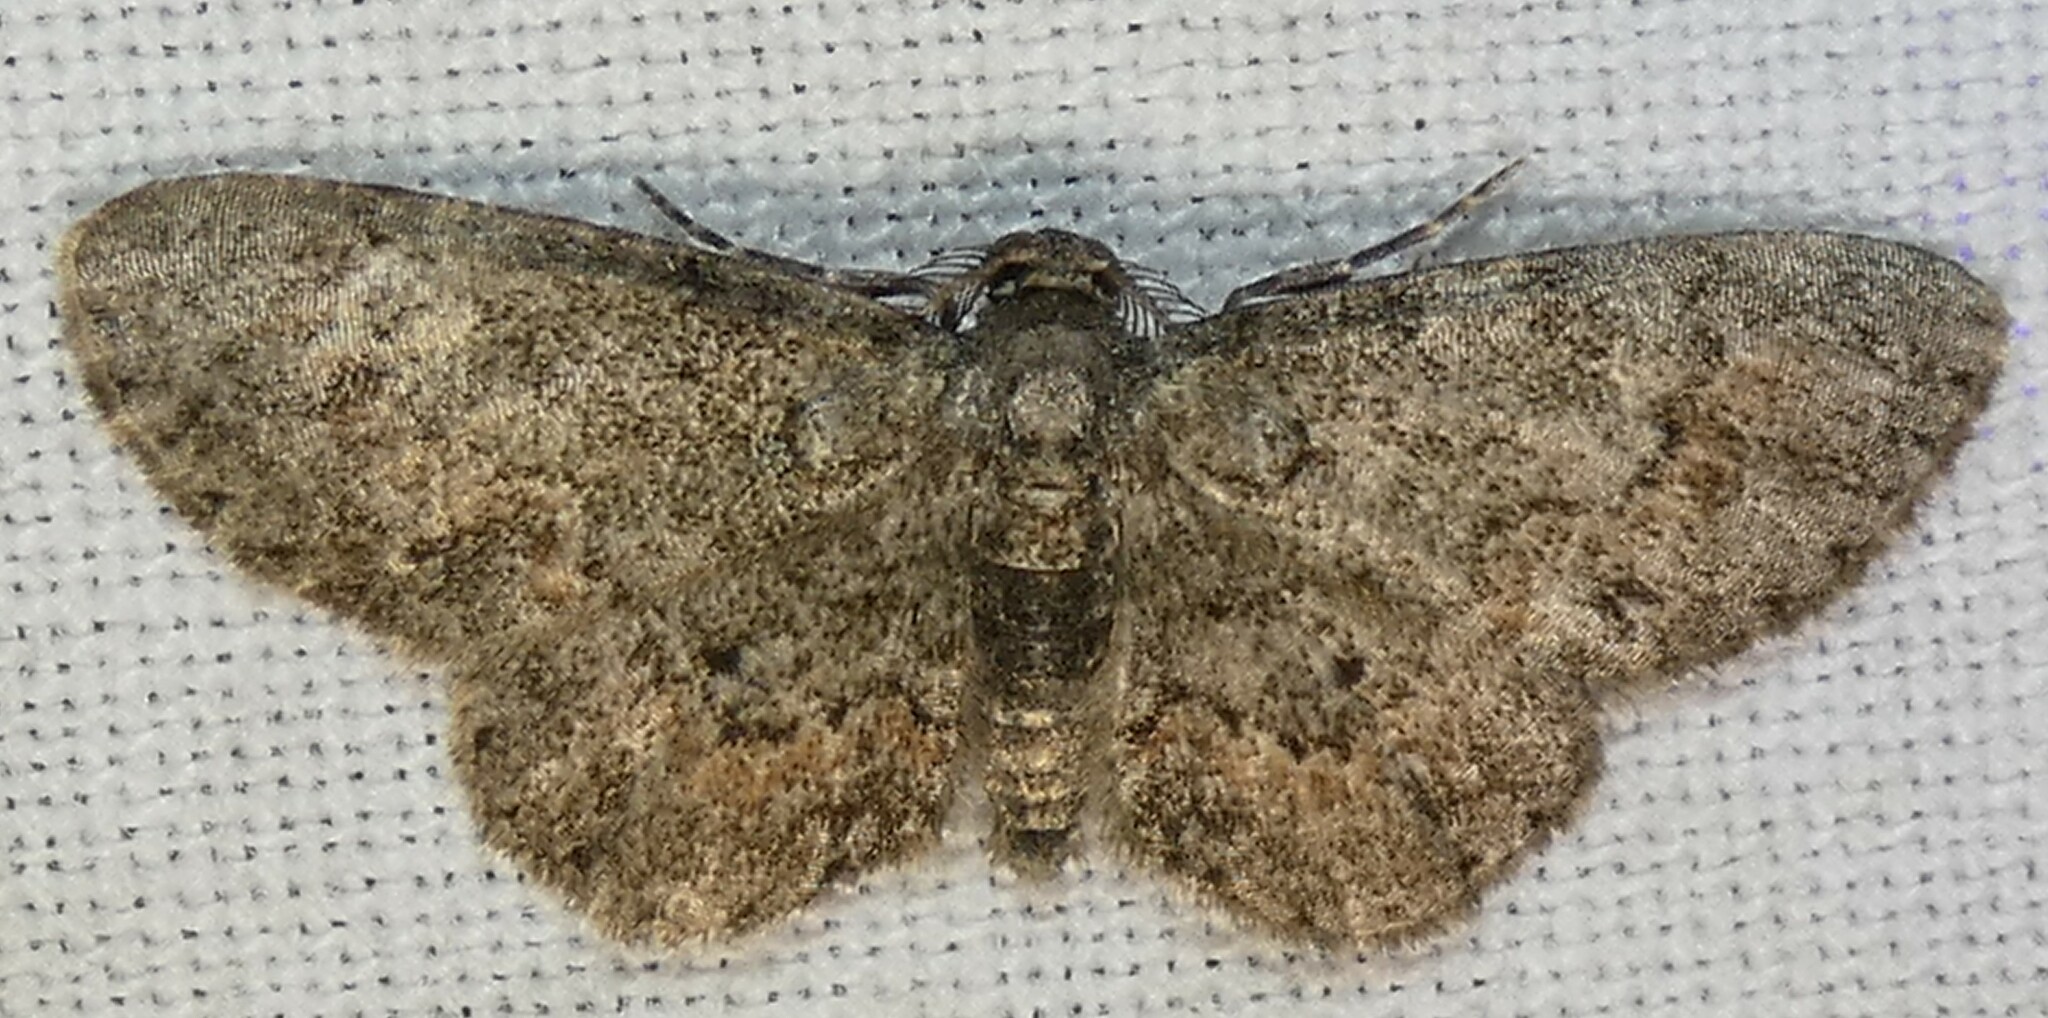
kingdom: Animalia
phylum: Arthropoda
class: Insecta
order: Lepidoptera
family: Geometridae
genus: Glenoides
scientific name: Glenoides texanaria
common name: Texas gray
